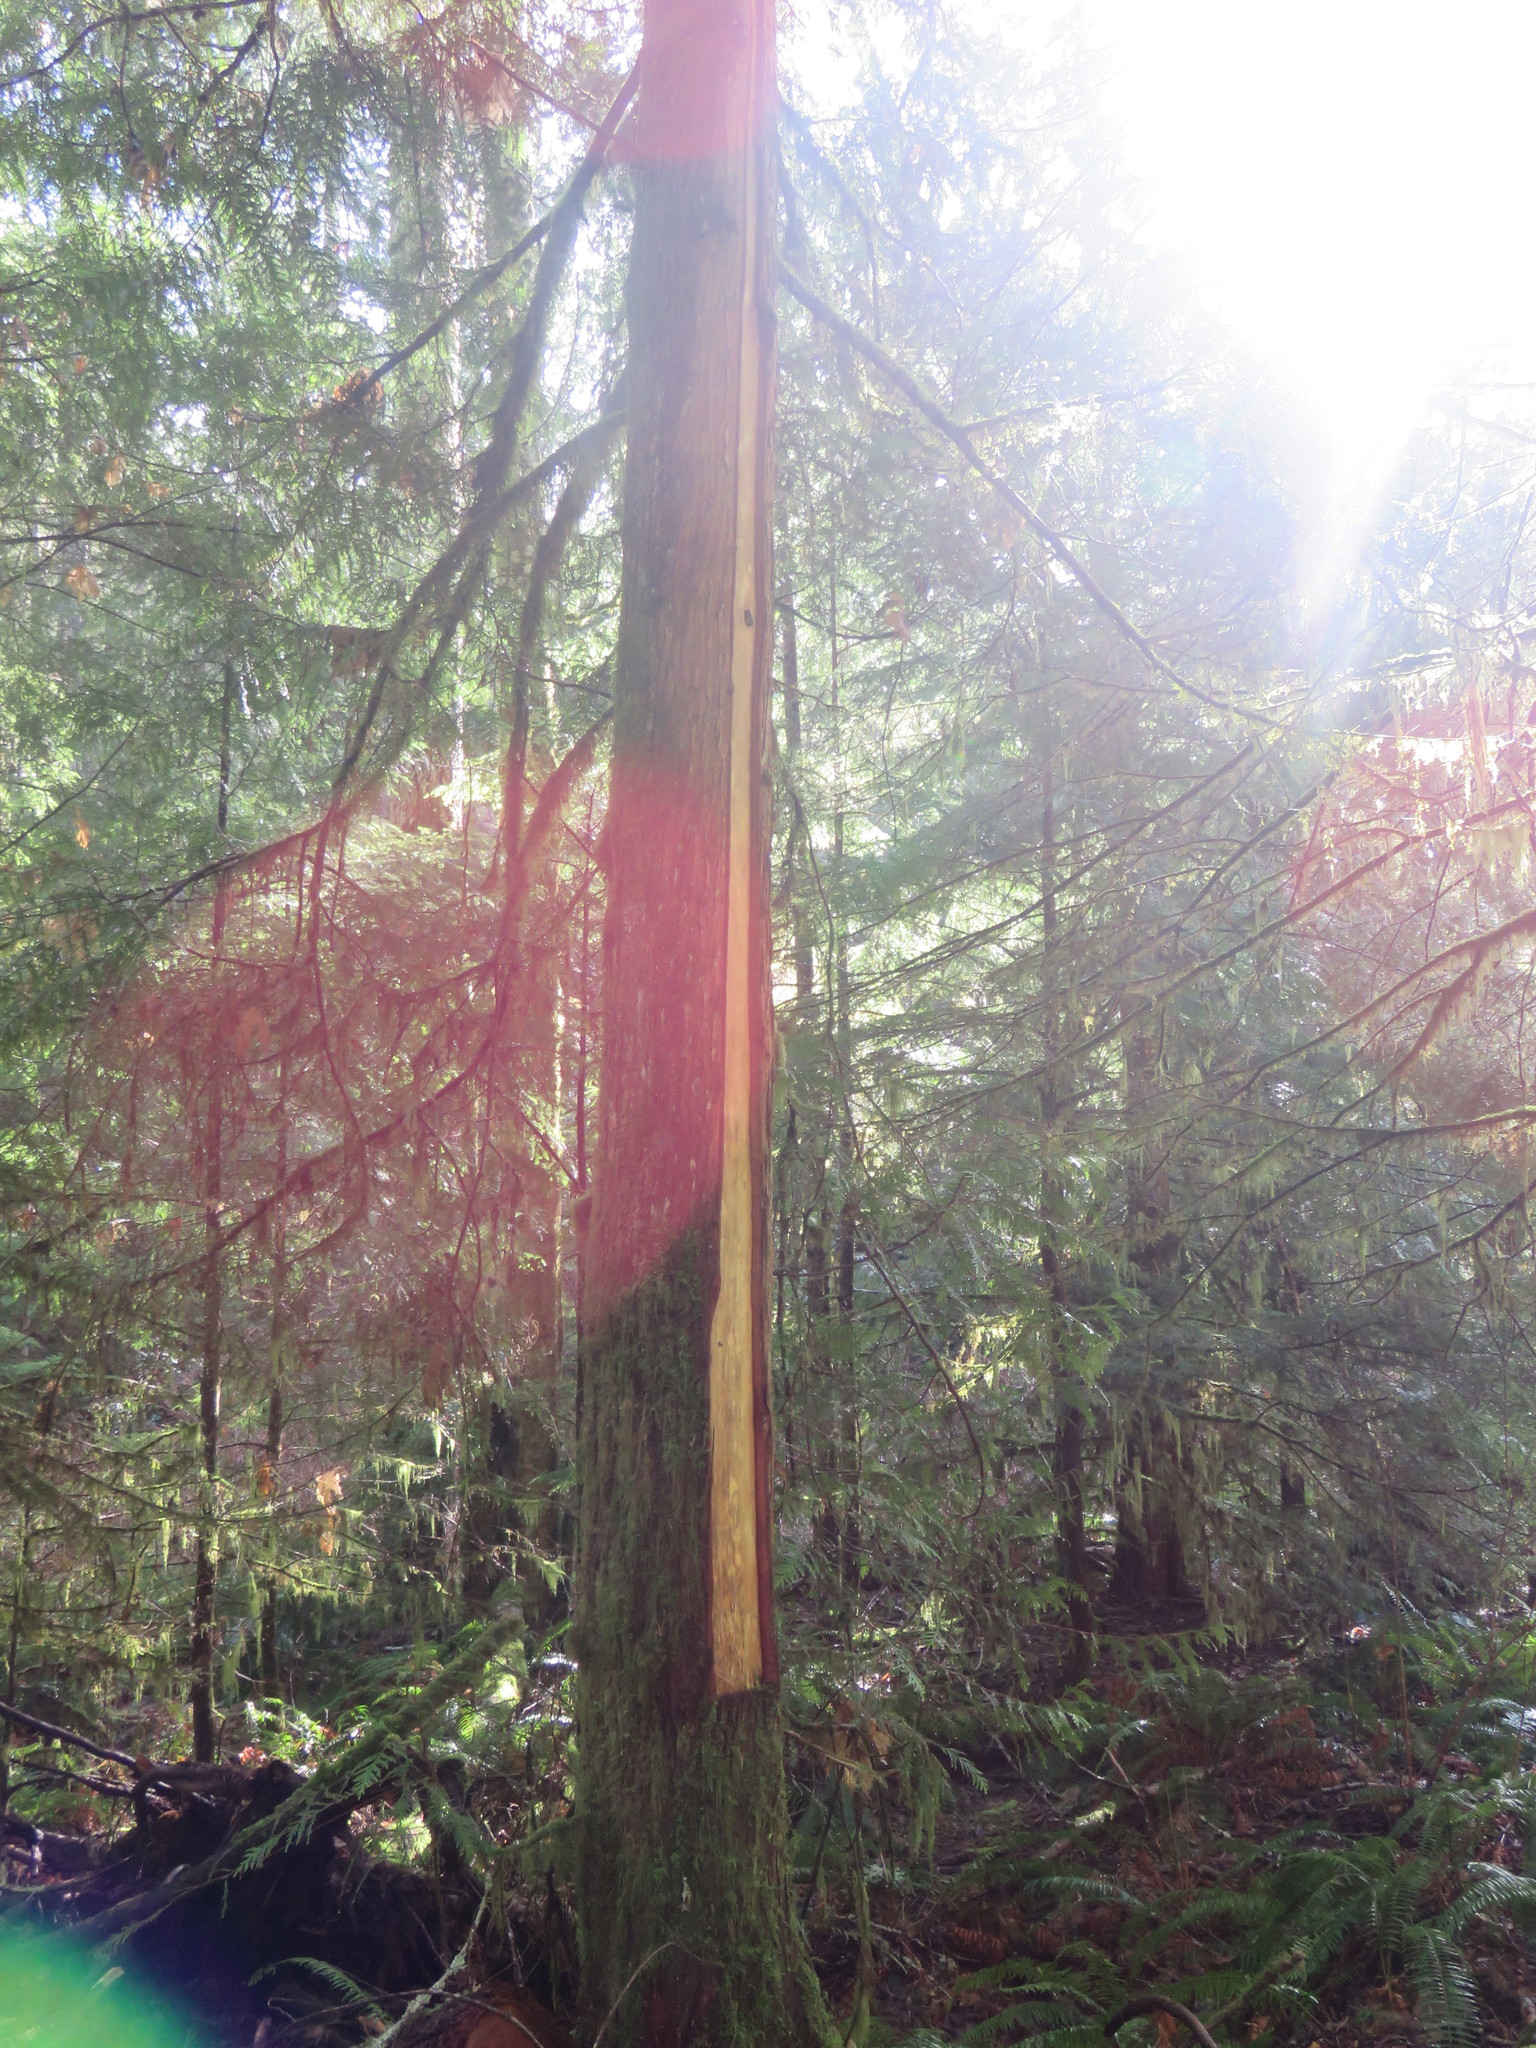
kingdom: Plantae
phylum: Tracheophyta
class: Pinopsida
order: Pinales
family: Cupressaceae
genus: Thuja
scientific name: Thuja plicata
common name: Western red-cedar
